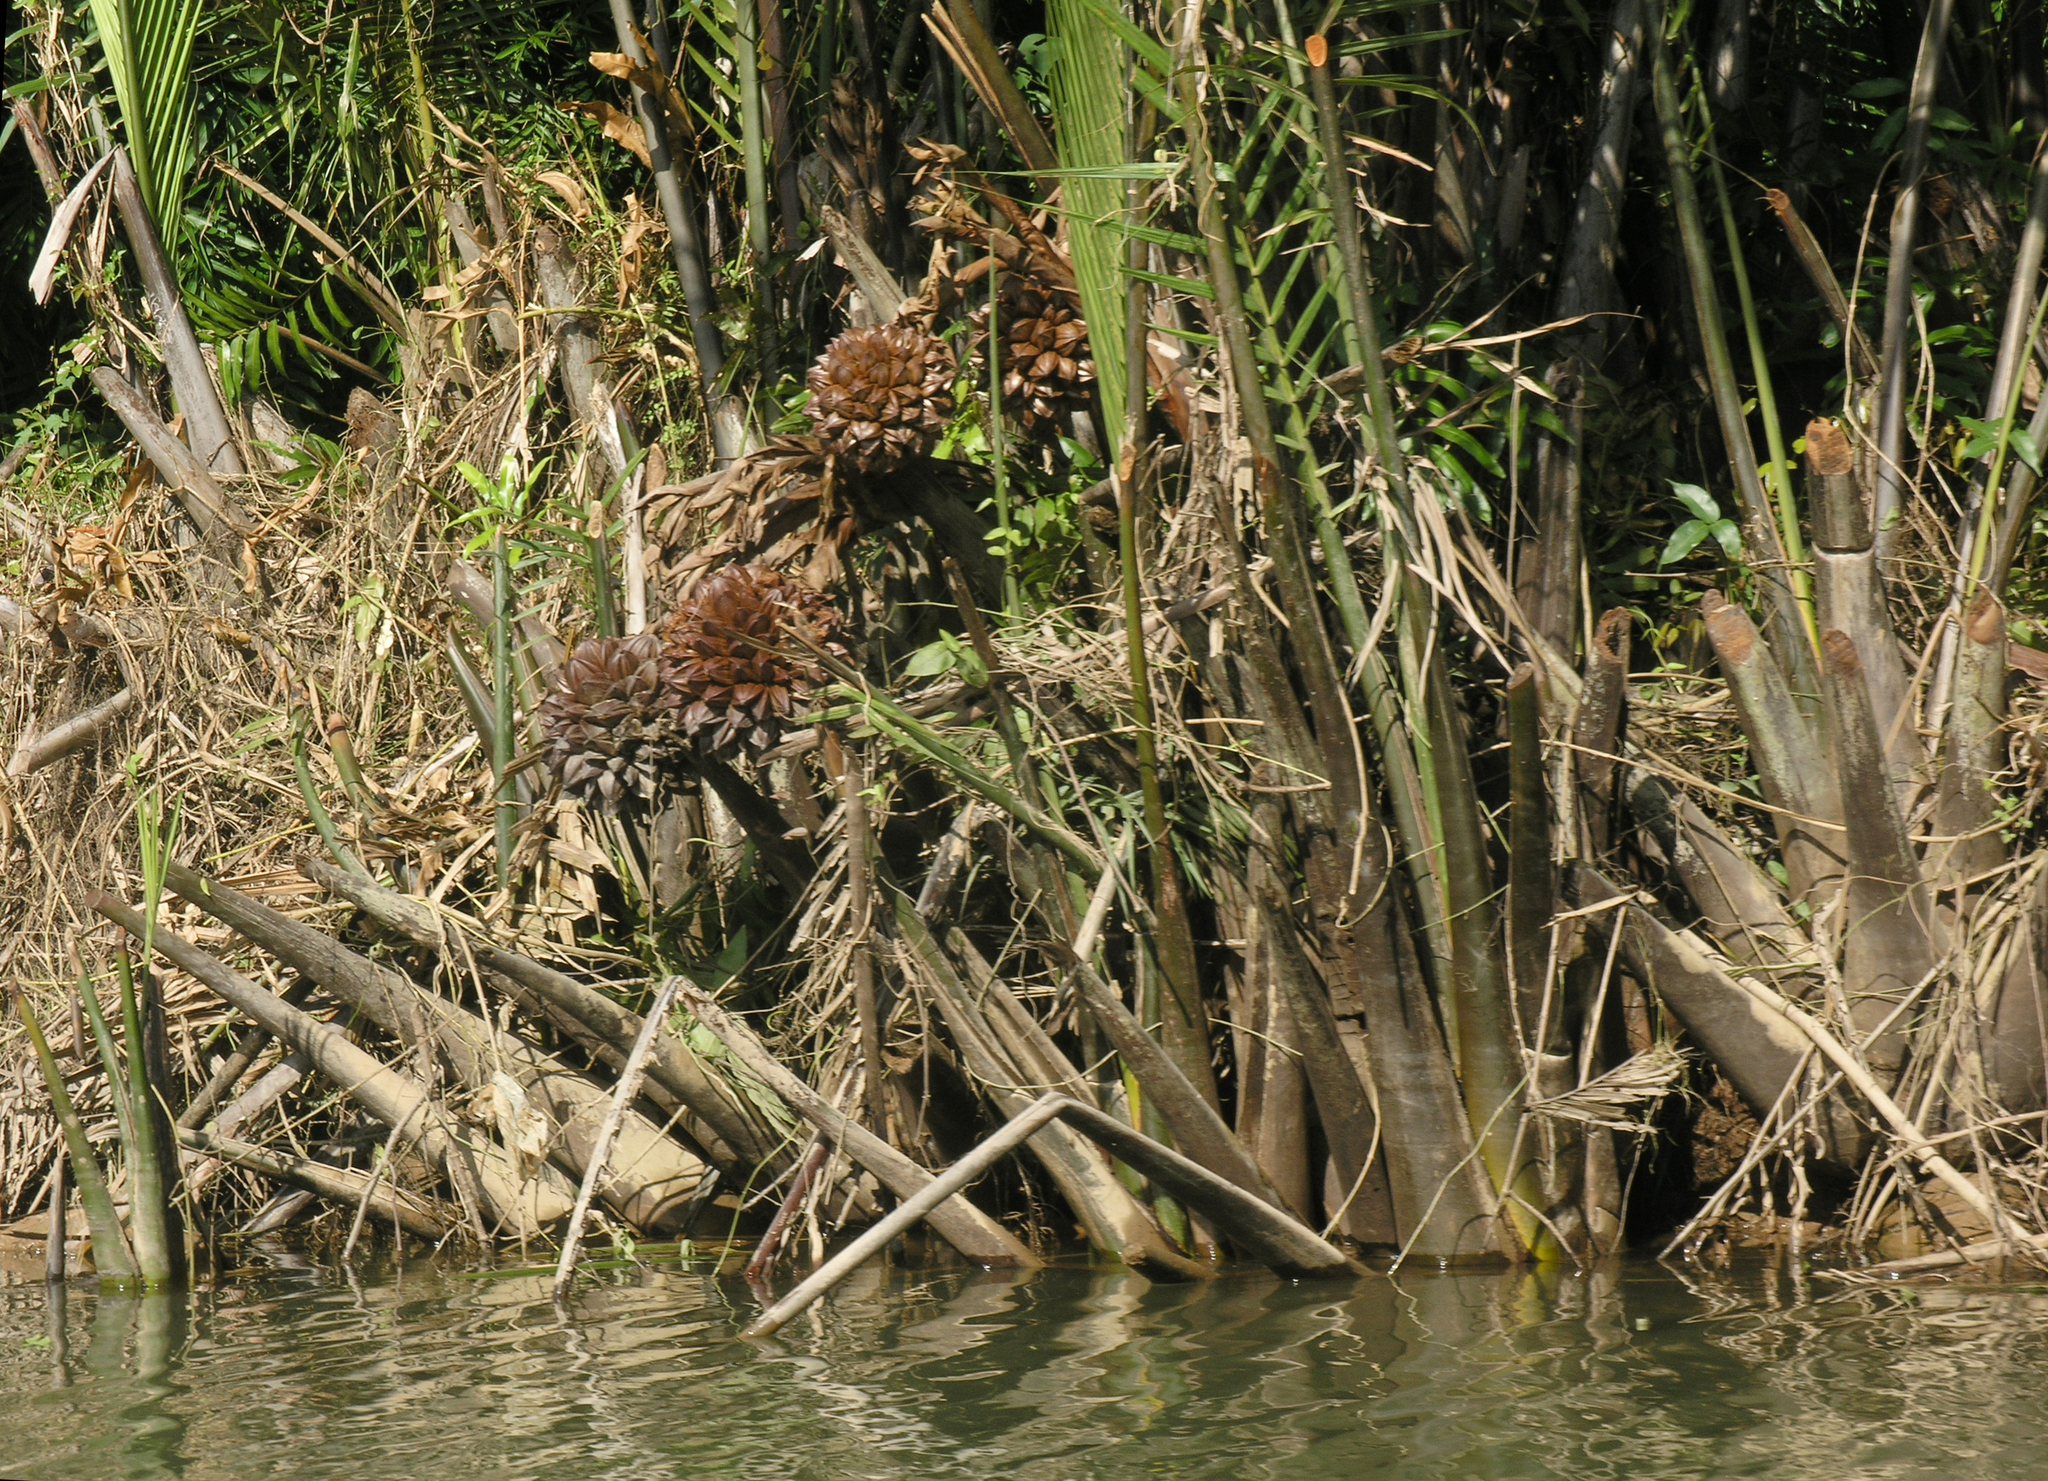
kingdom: Plantae
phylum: Tracheophyta
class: Liliopsida
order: Arecales
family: Arecaceae
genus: Nypa
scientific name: Nypa fruticans
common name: Mangrove palm
